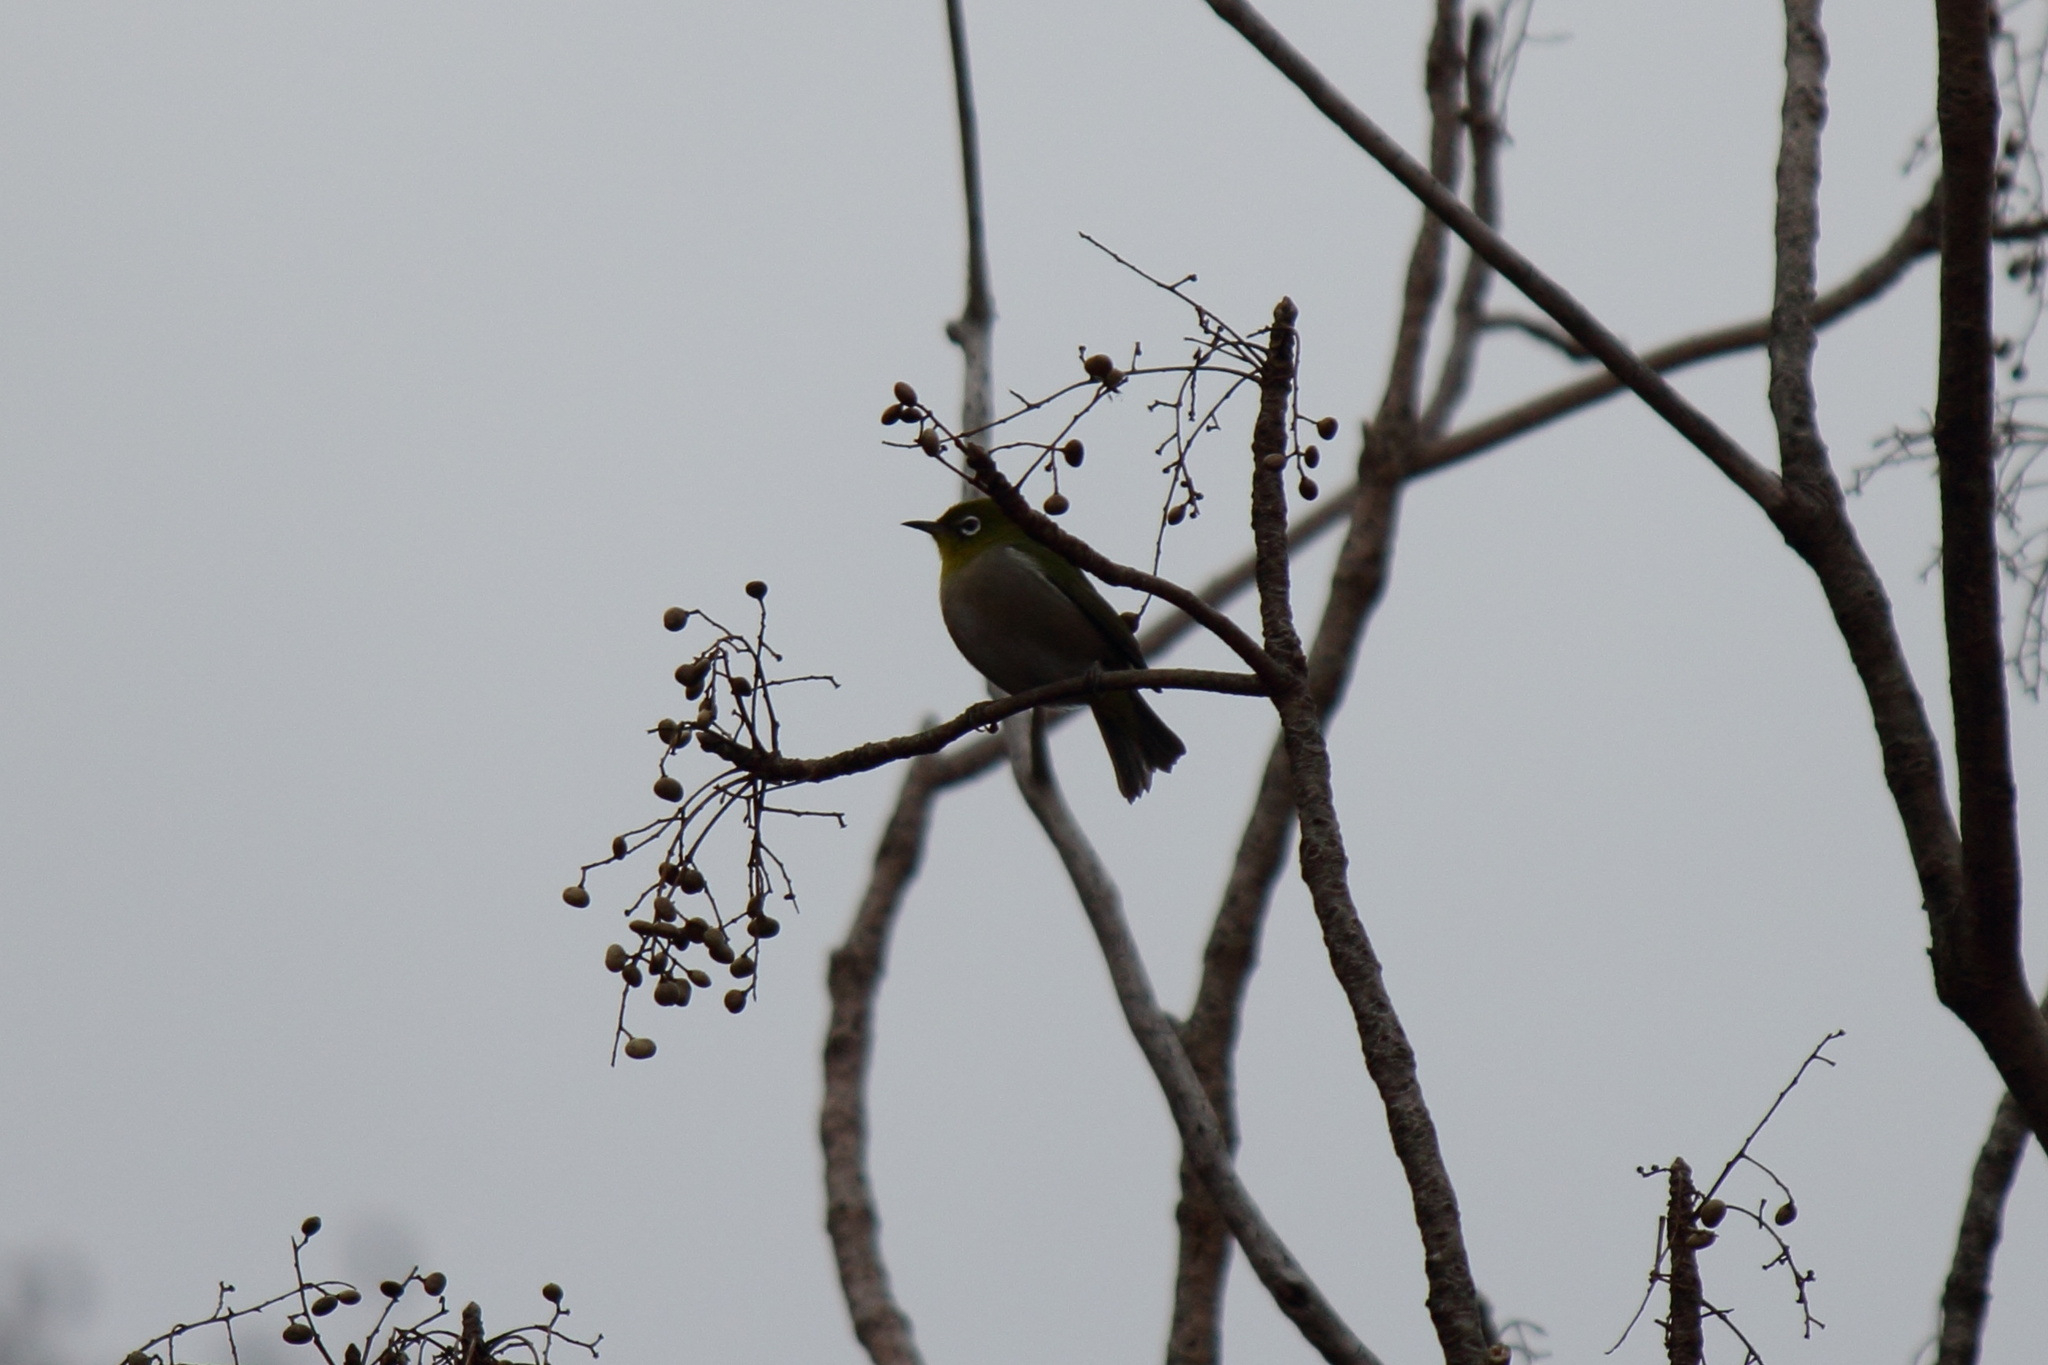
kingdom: Animalia
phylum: Chordata
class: Aves
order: Passeriformes
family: Zosteropidae
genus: Zosterops
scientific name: Zosterops japonicus
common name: Japanese white-eye
